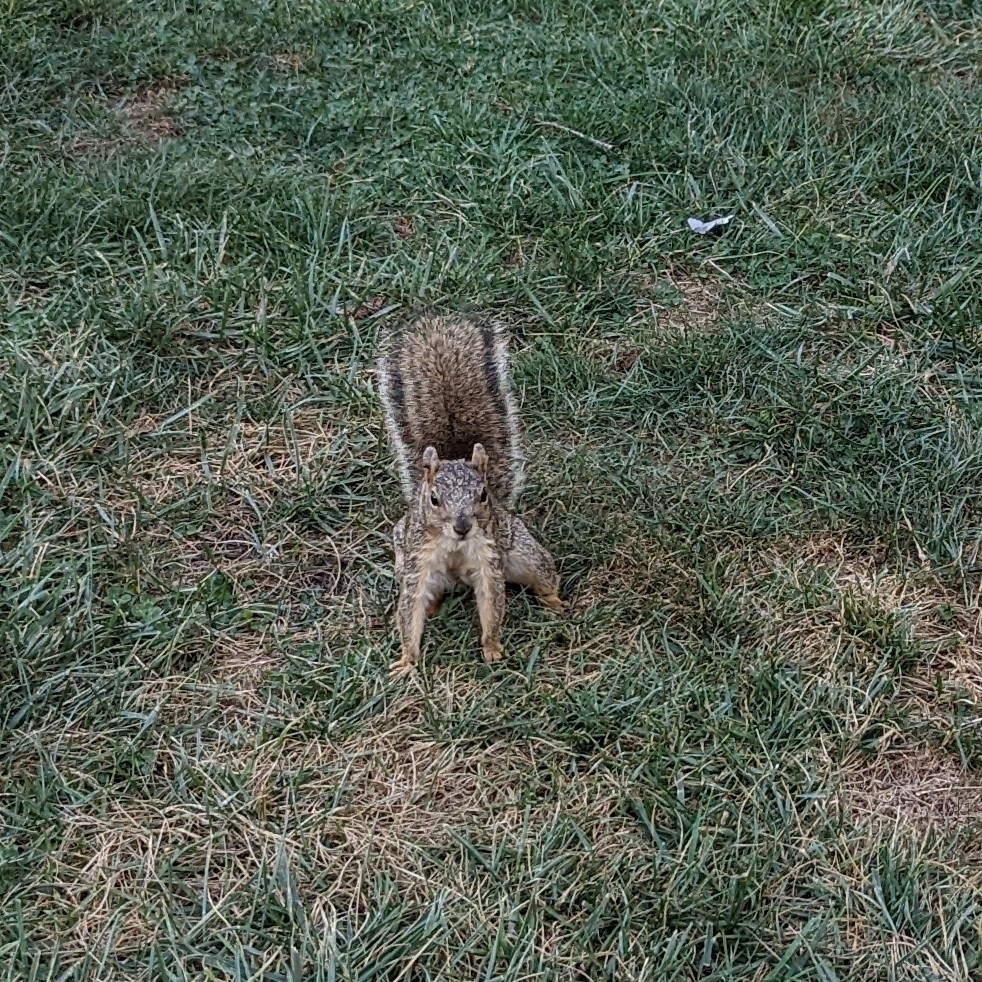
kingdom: Animalia
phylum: Chordata
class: Mammalia
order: Rodentia
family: Sciuridae
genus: Sciurus
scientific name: Sciurus niger
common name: Fox squirrel
